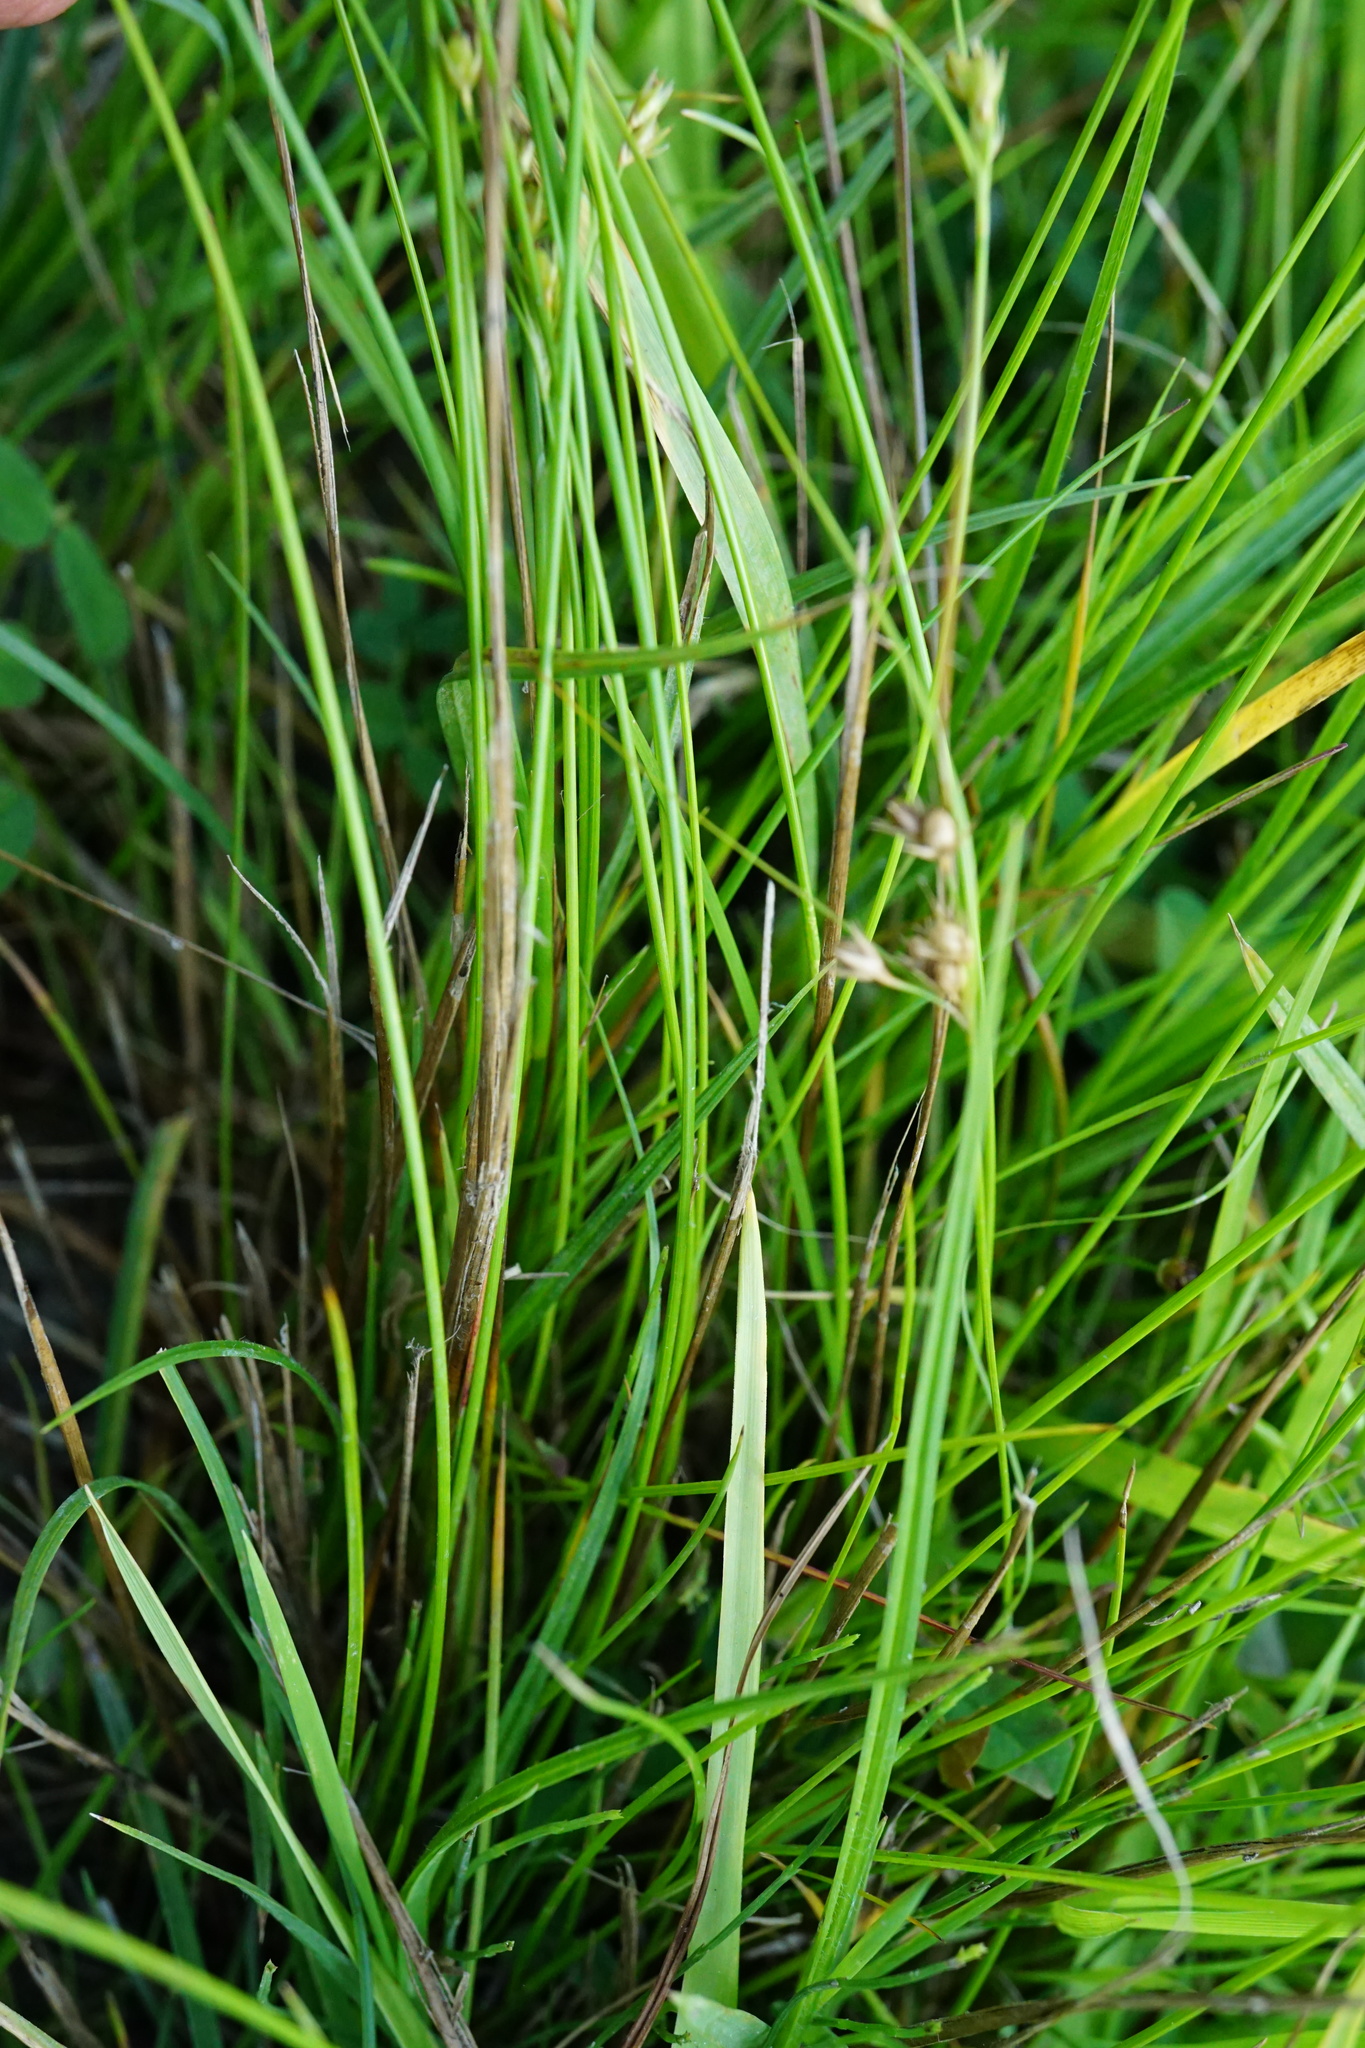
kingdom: Plantae
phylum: Tracheophyta
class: Liliopsida
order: Poales
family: Juncaceae
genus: Juncus
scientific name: Juncus tenuis
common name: Slender rush
